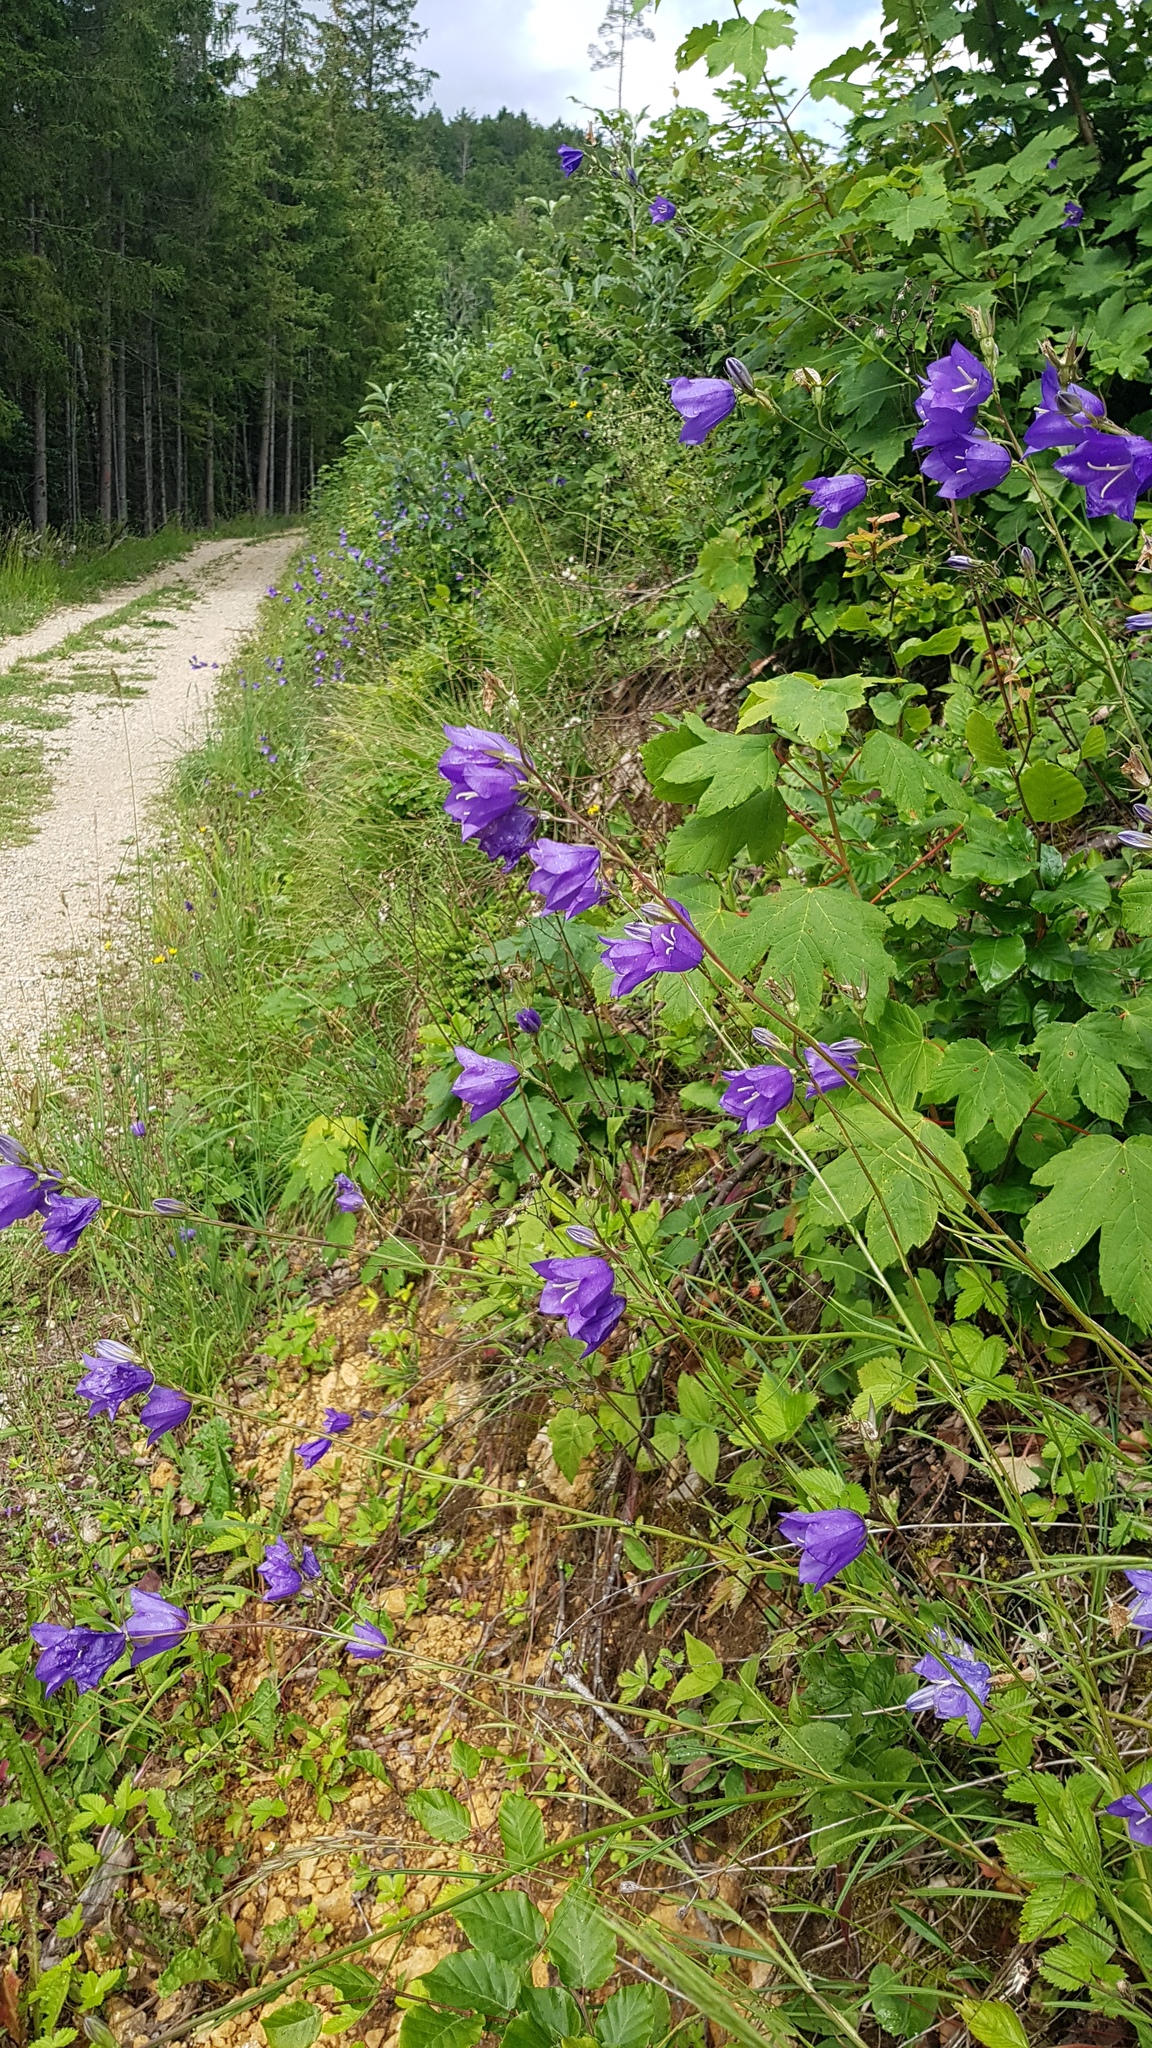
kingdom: Plantae
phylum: Tracheophyta
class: Magnoliopsida
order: Asterales
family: Campanulaceae
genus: Campanula
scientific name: Campanula persicifolia
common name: Peach-leaved bellflower
